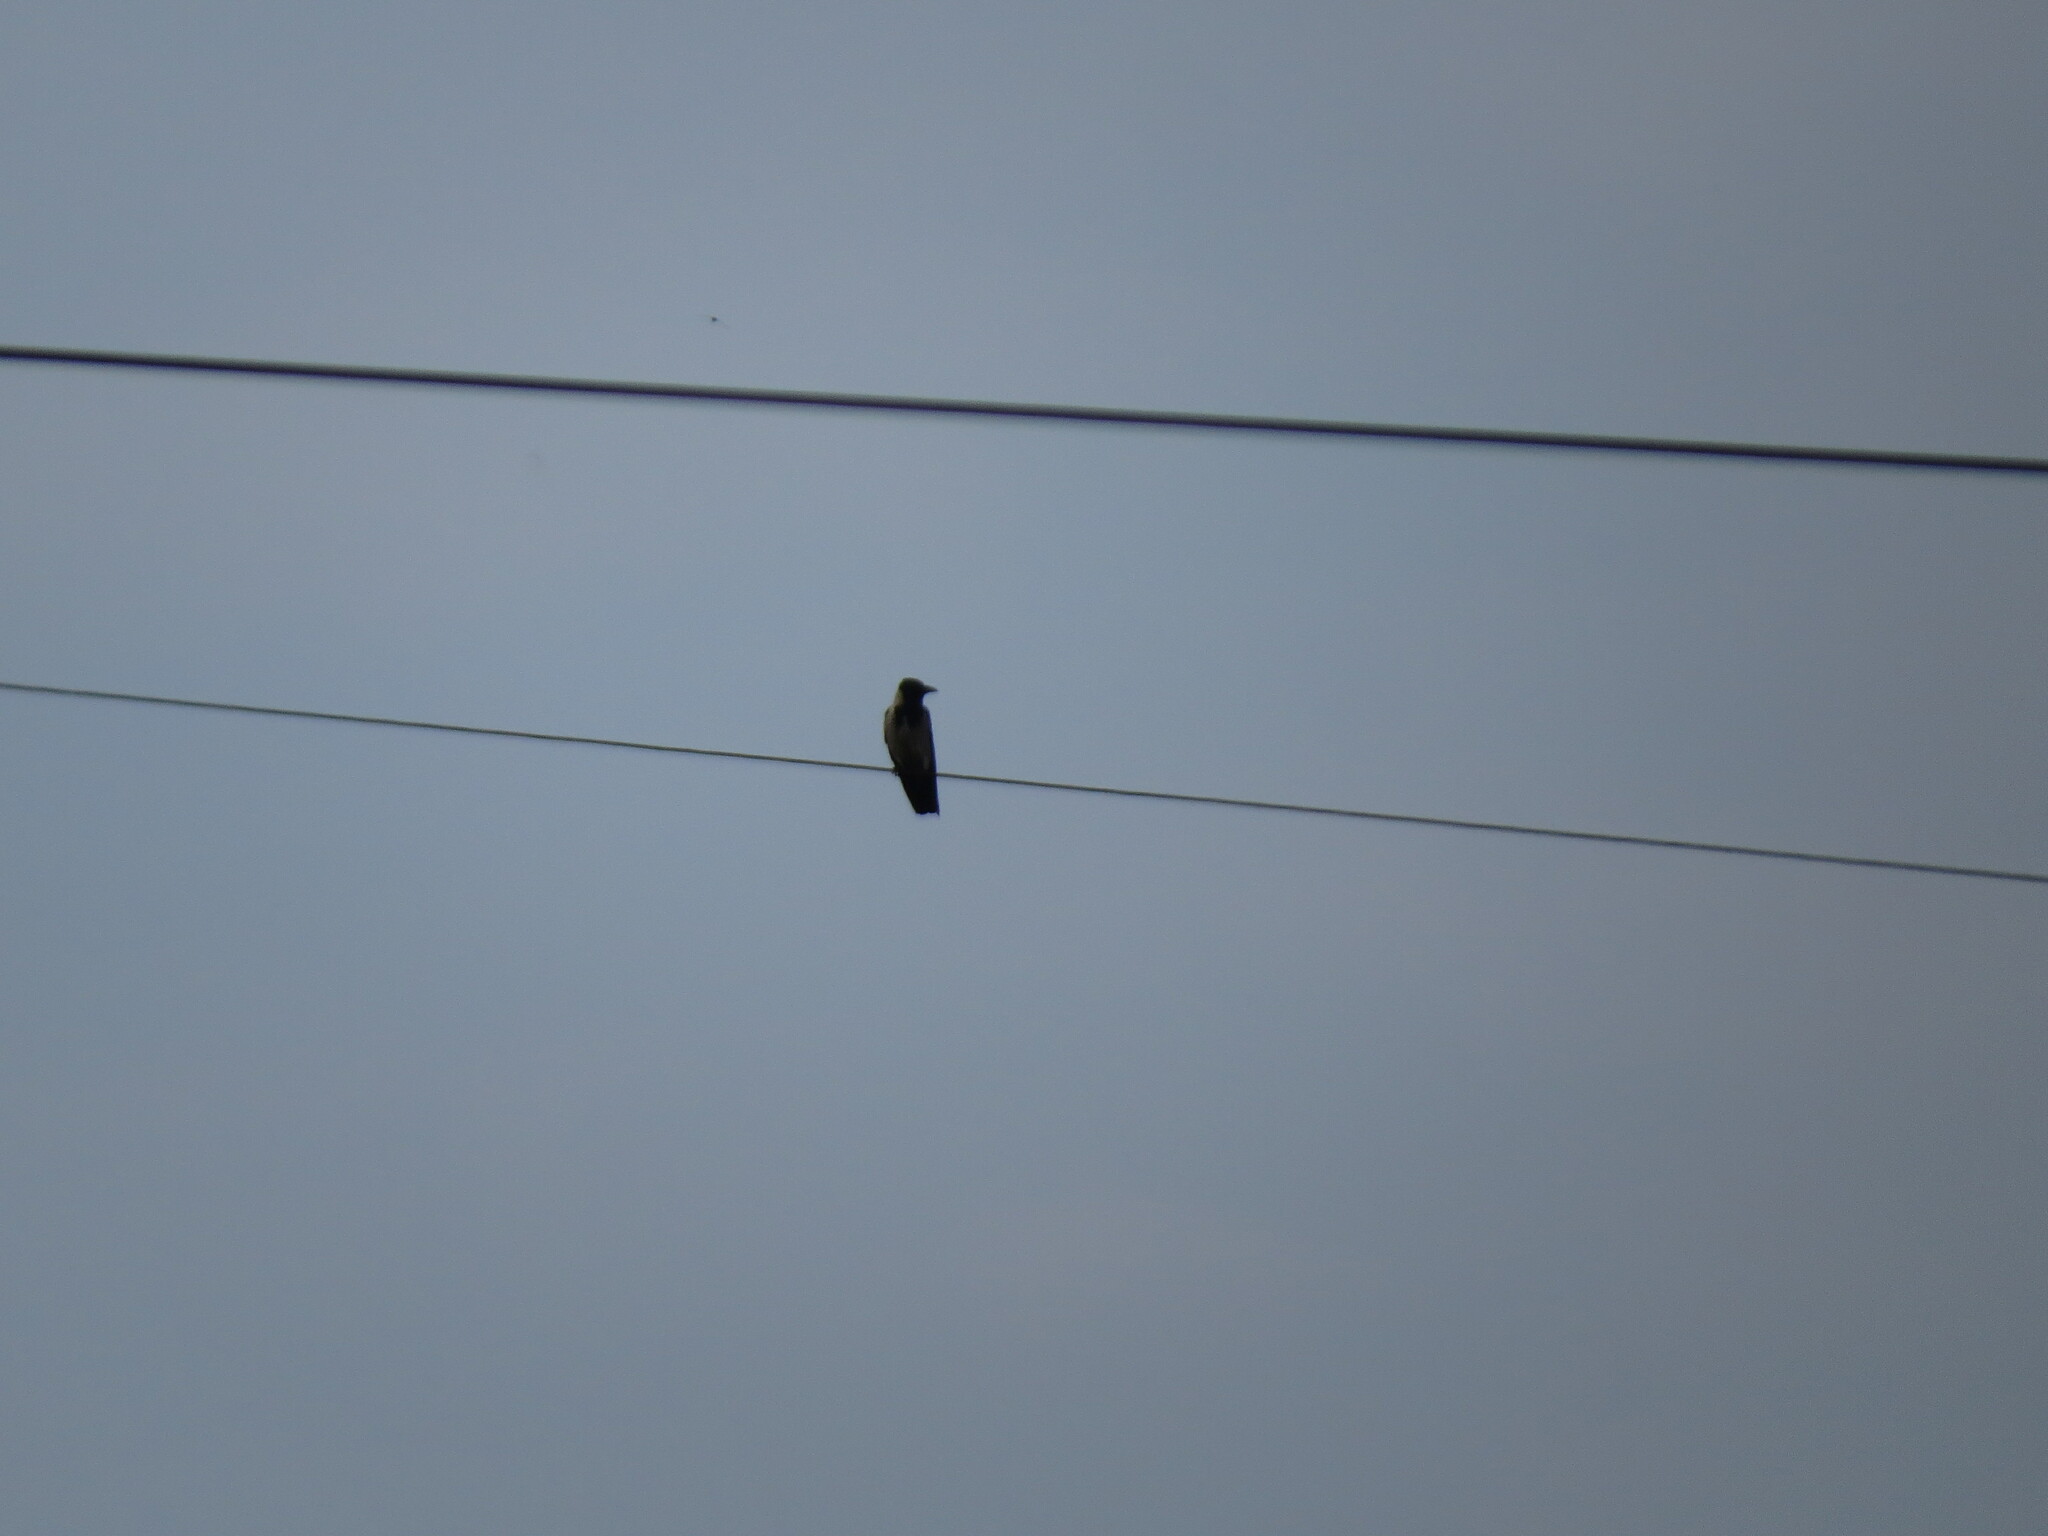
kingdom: Animalia
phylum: Chordata
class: Aves
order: Passeriformes
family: Corvidae
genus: Corvus
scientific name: Corvus cornix
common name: Hooded crow
